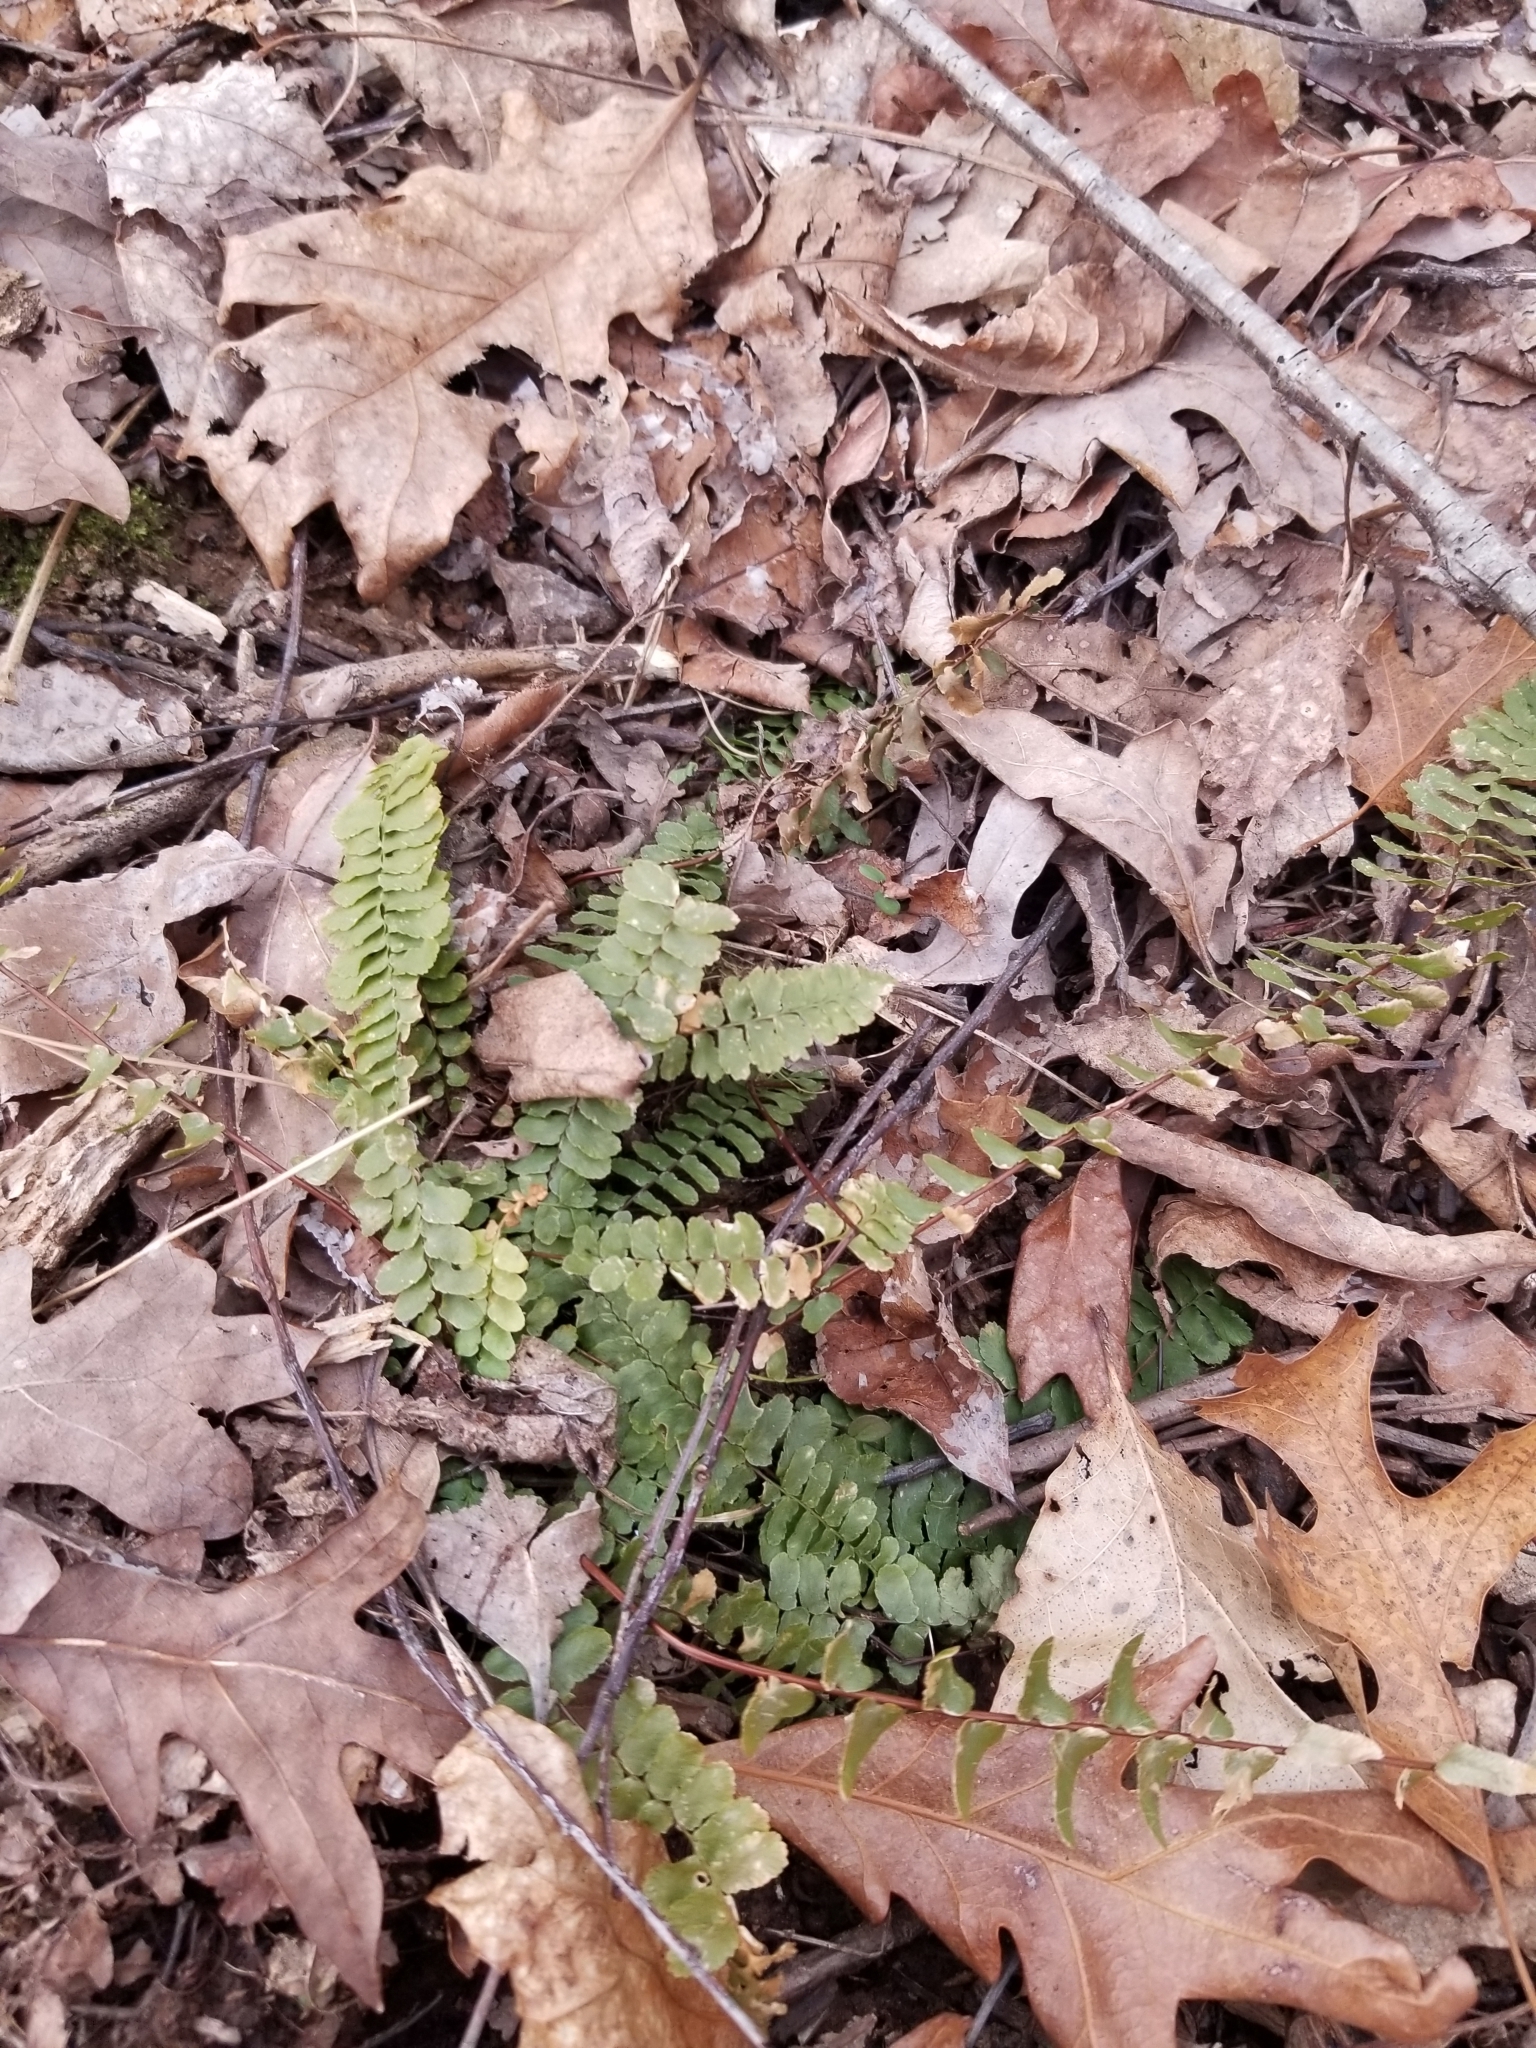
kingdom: Plantae
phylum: Tracheophyta
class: Polypodiopsida
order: Polypodiales
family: Aspleniaceae
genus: Asplenium
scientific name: Asplenium platyneuron
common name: Ebony spleenwort
